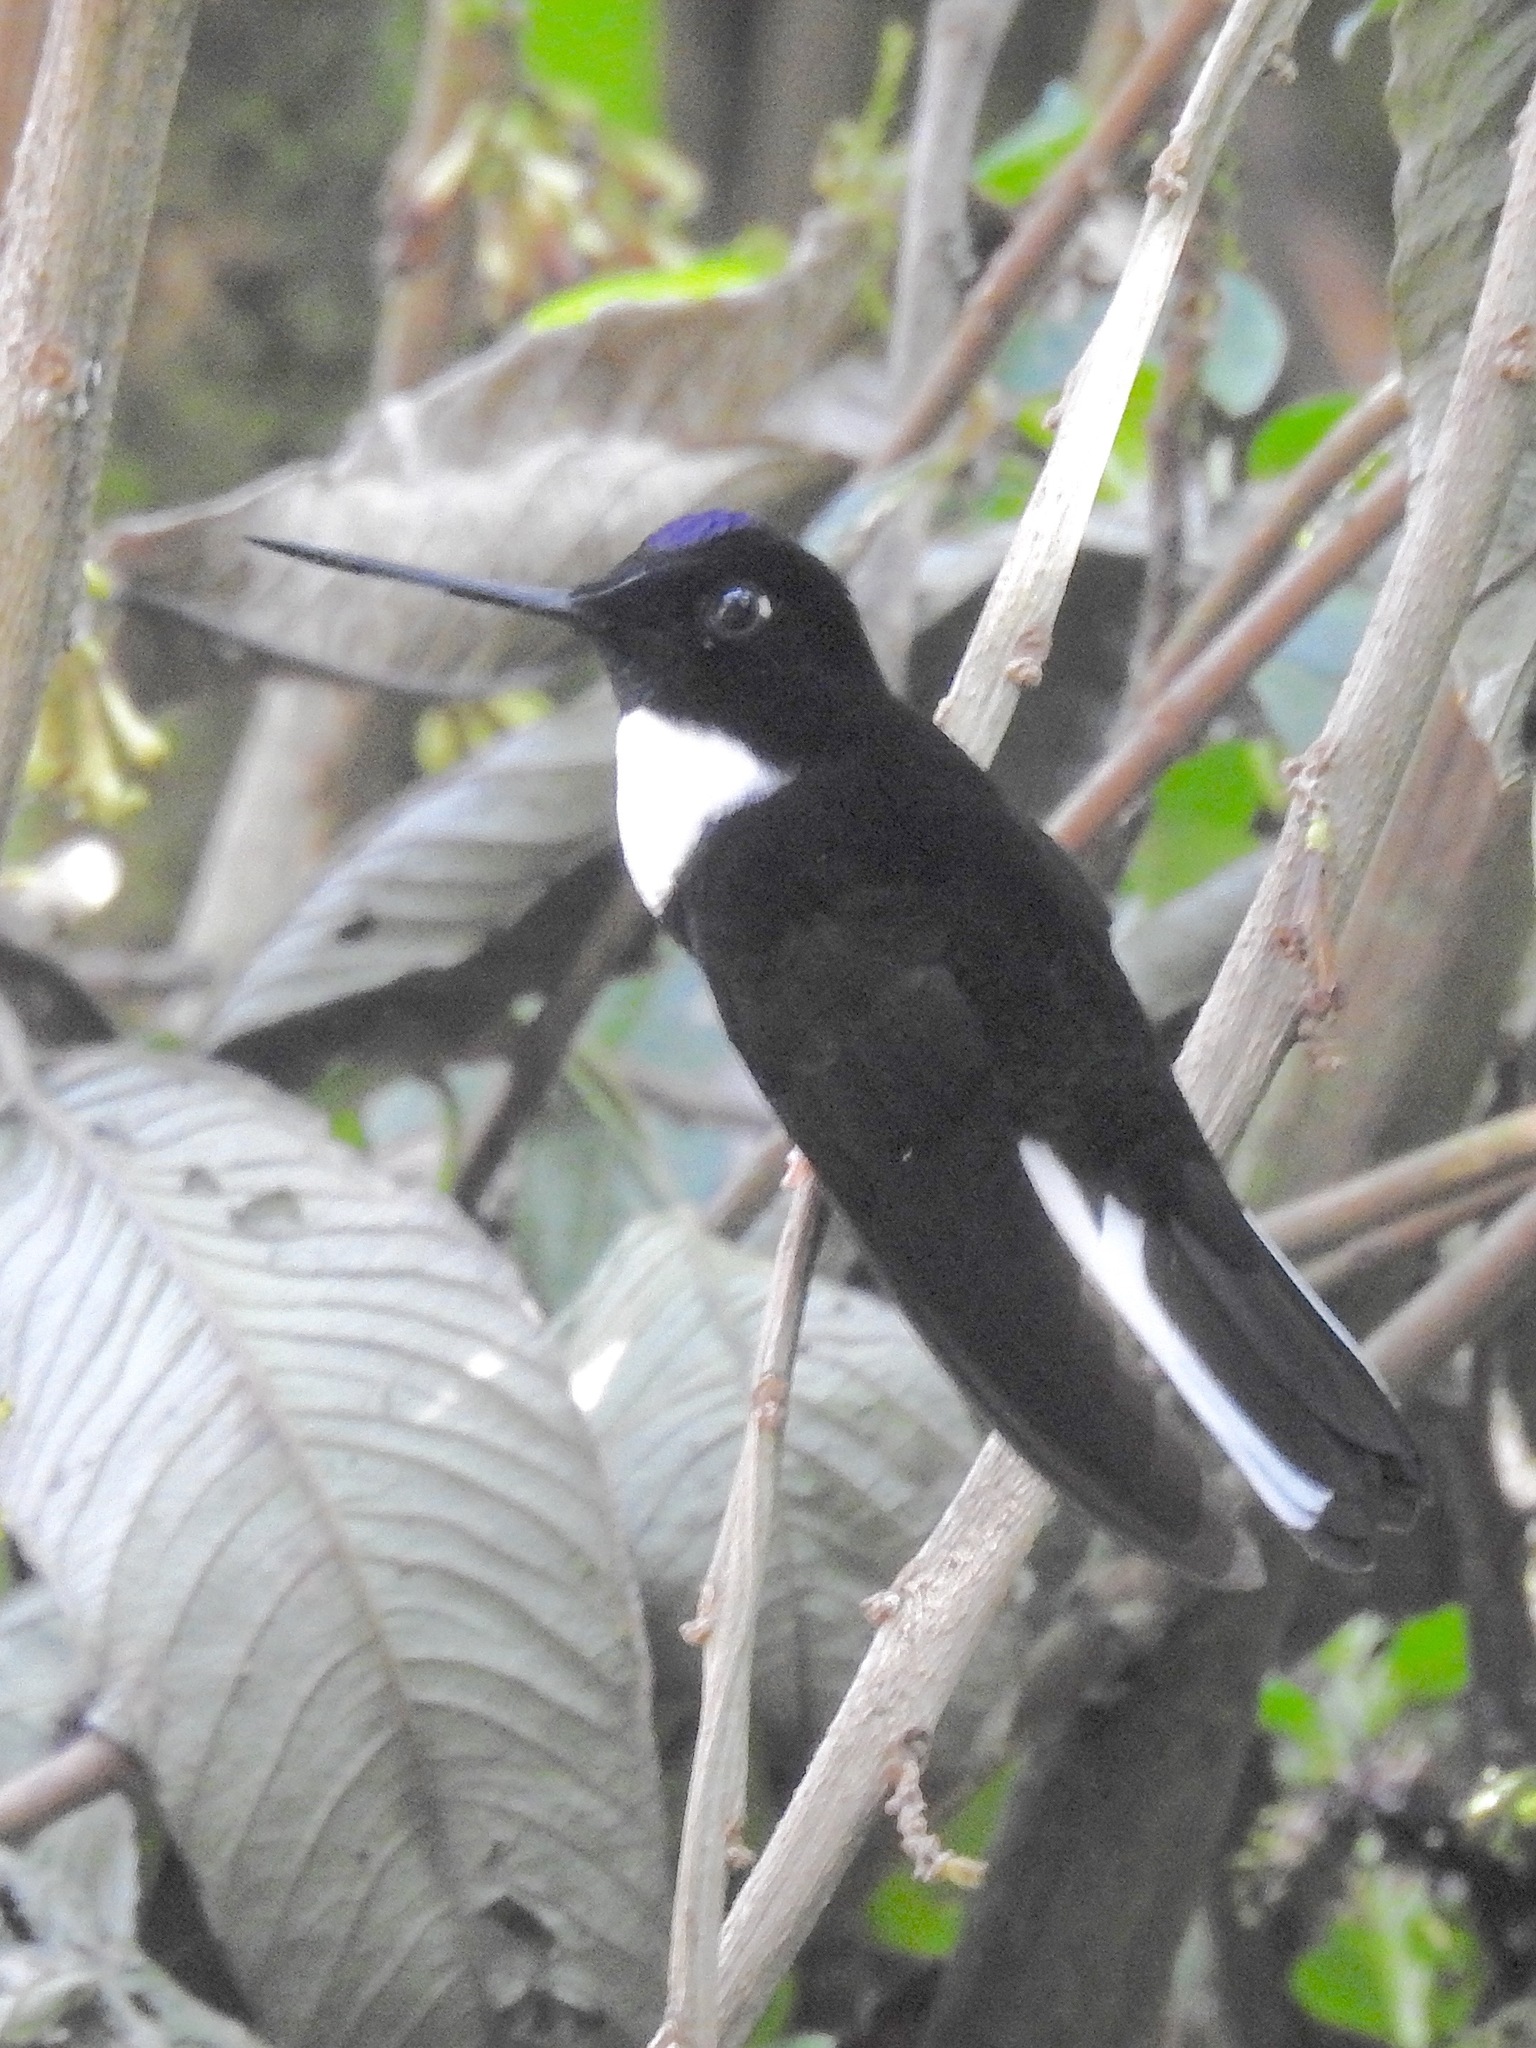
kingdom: Animalia
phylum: Chordata
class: Aves
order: Apodiformes
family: Trochilidae
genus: Coeligena
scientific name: Coeligena torquata
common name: Collared inca
